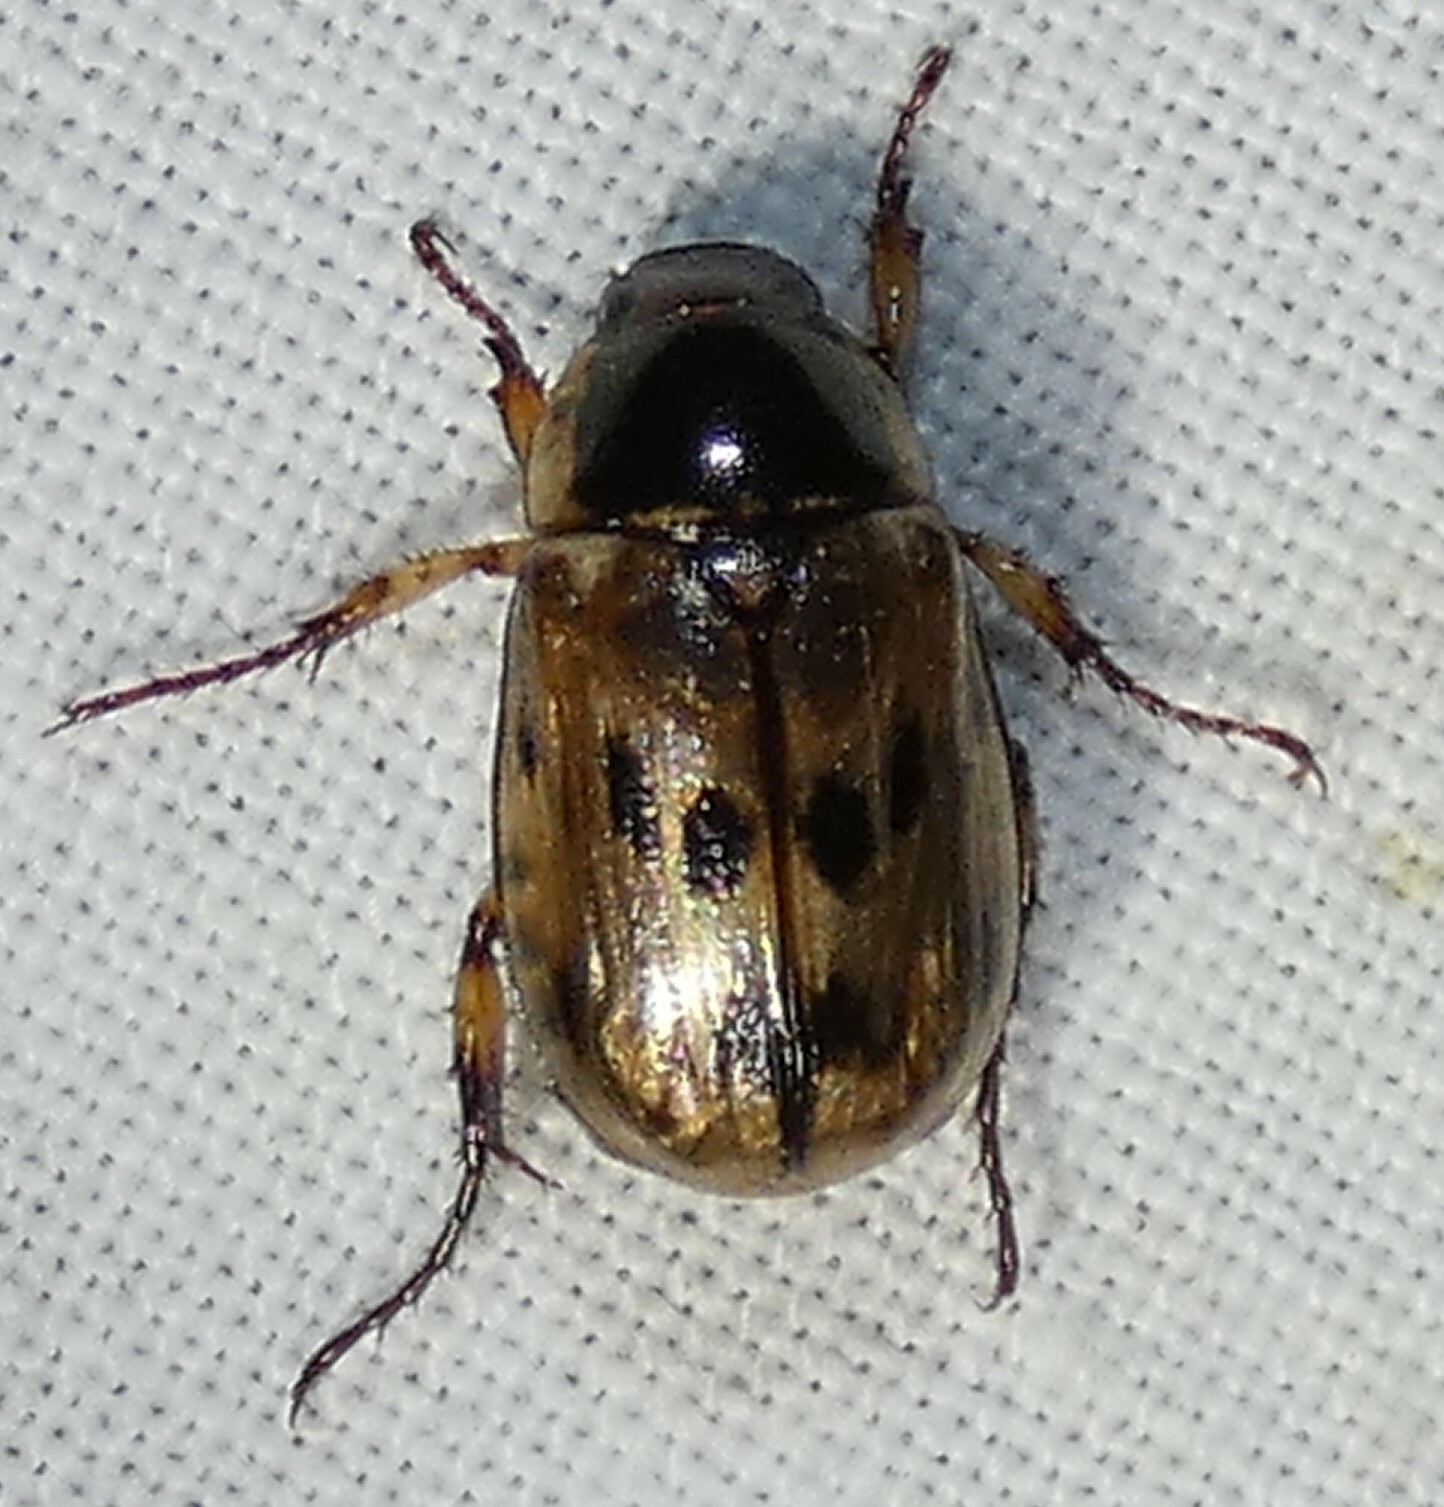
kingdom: Animalia
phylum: Arthropoda
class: Insecta
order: Coleoptera
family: Scarabaeidae
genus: Paranomala
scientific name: Paranomala undulata
